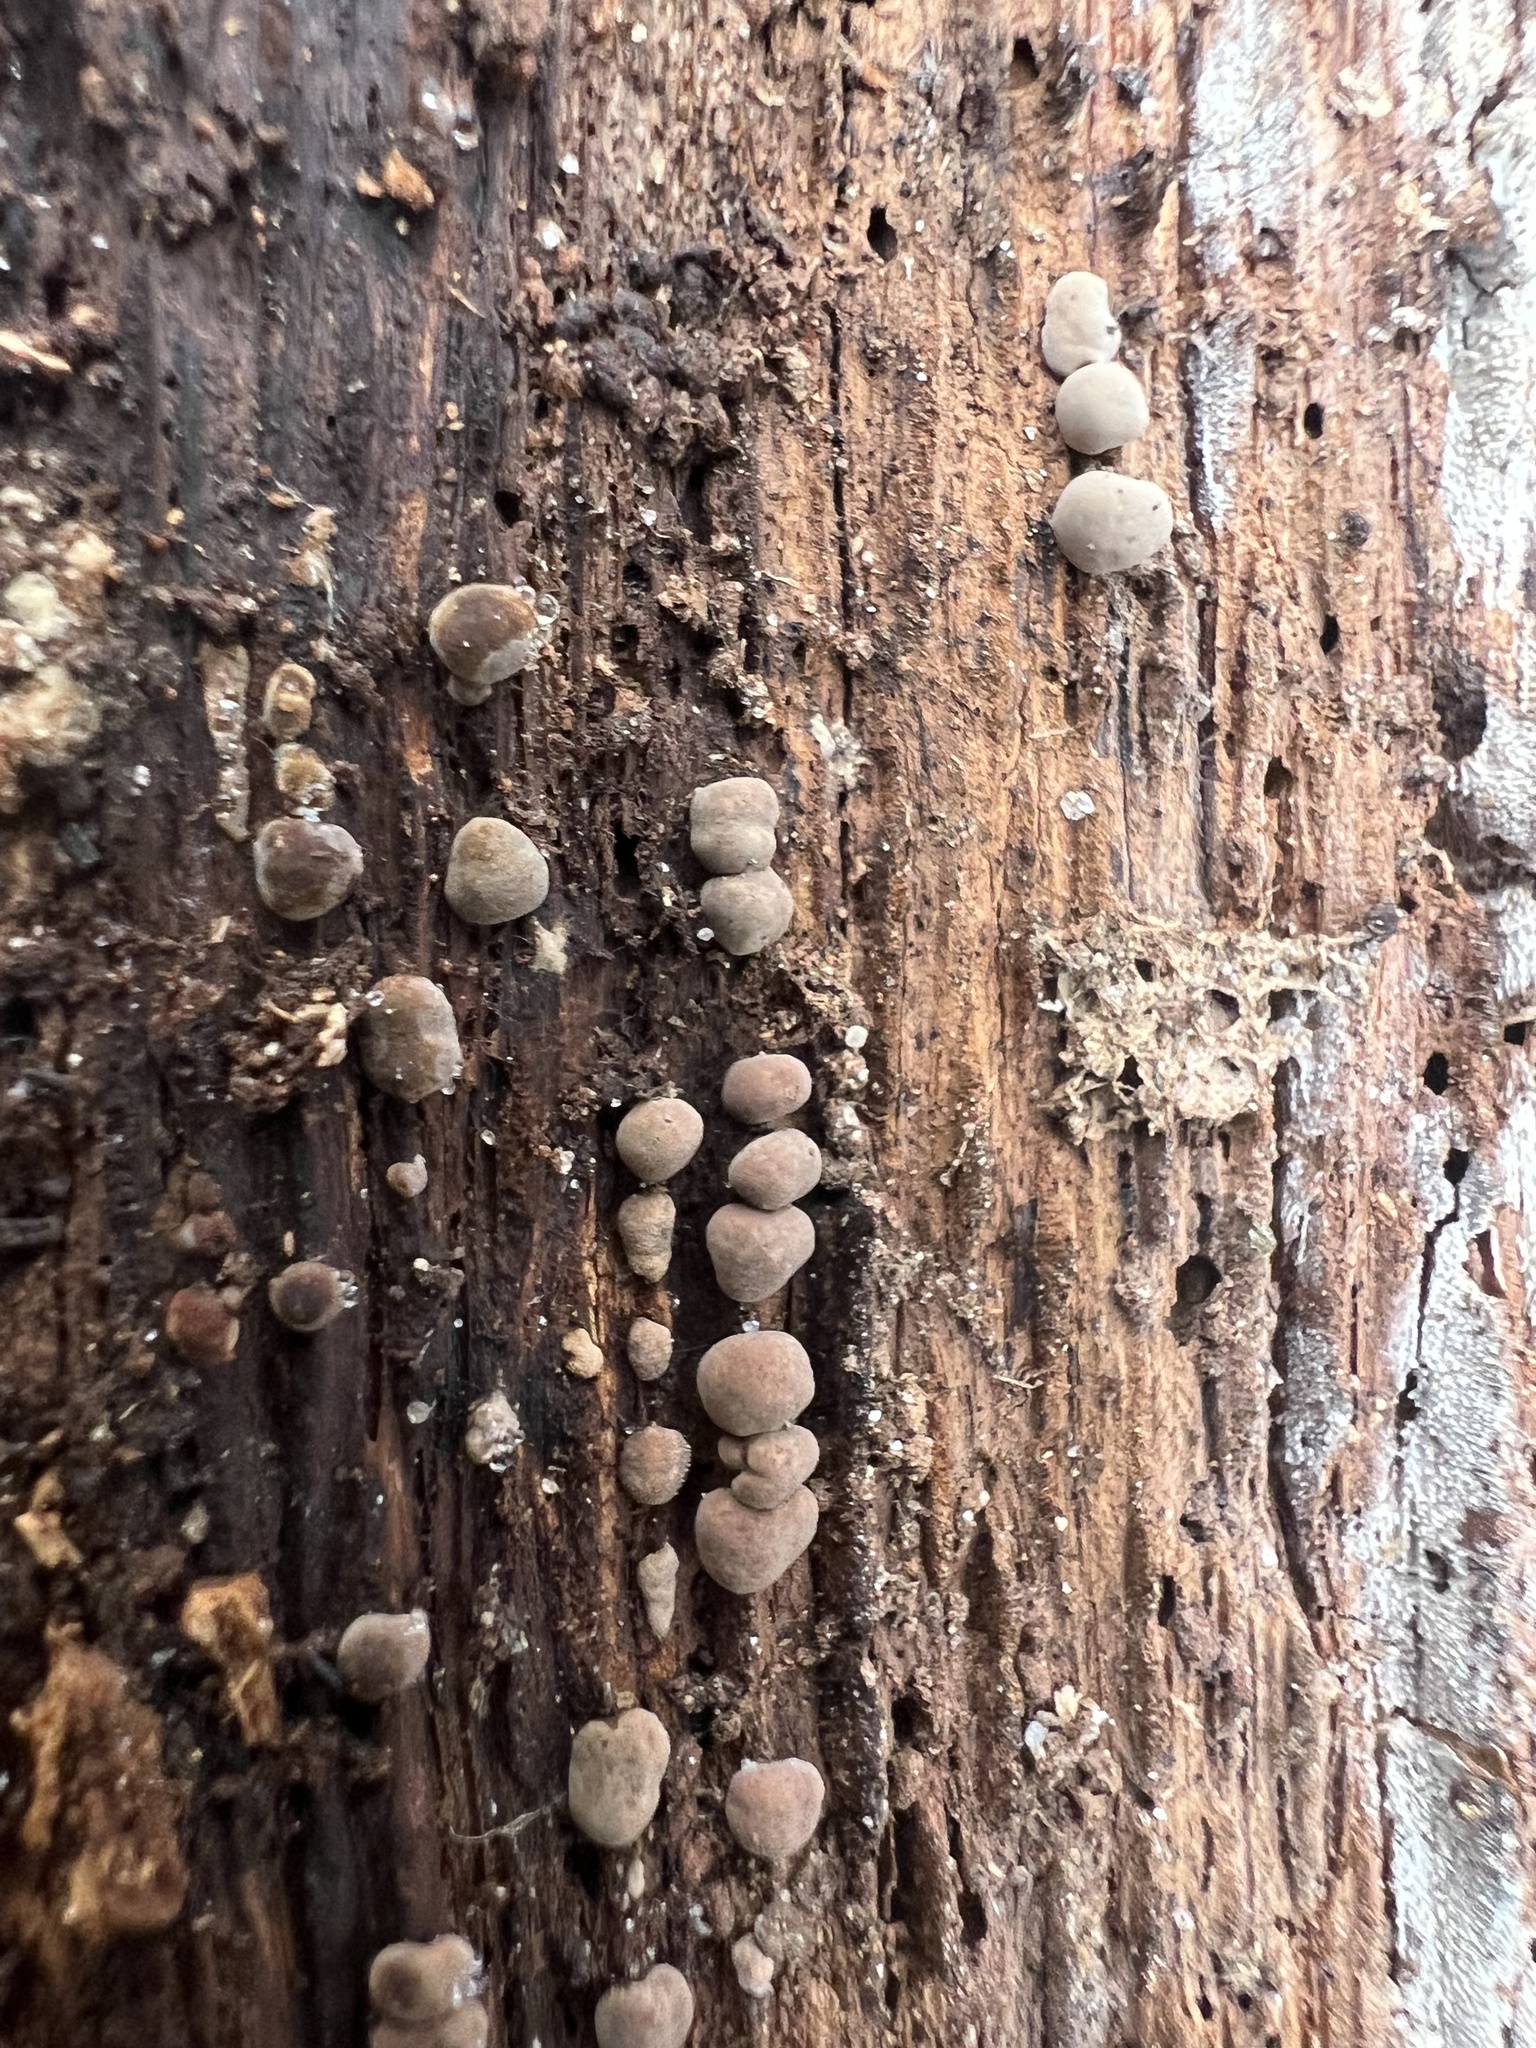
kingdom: Fungi
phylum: Basidiomycota
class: Agaricomycetes
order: Russulales
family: Stereaceae
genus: Xylobolus
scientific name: Xylobolus frustulatus
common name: Ceramic parchment
